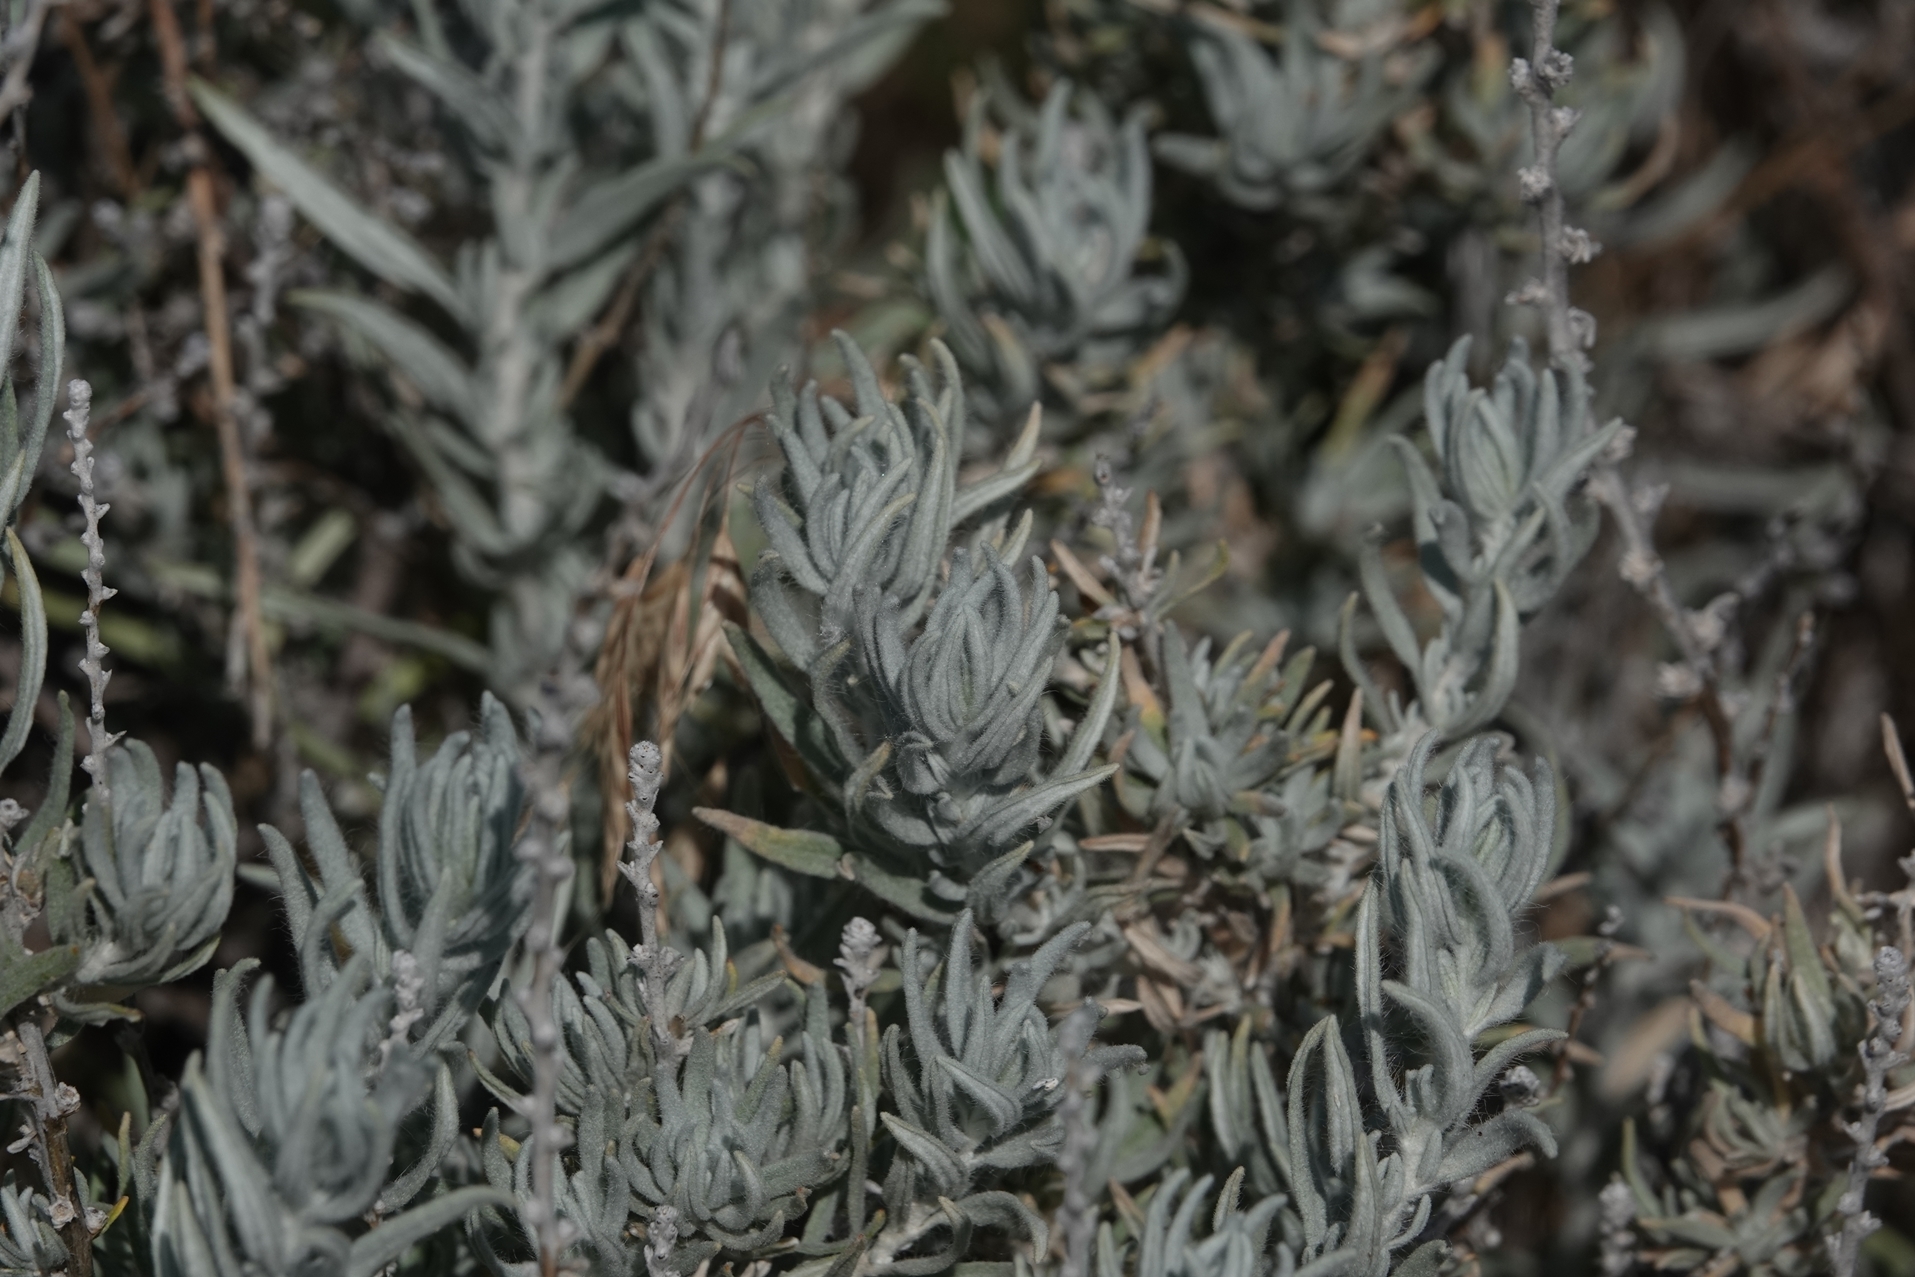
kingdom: Plantae
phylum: Tracheophyta
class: Magnoliopsida
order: Caryophyllales
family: Amaranthaceae
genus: Krascheninnikovia
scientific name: Krascheninnikovia lanata
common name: Winterfat
